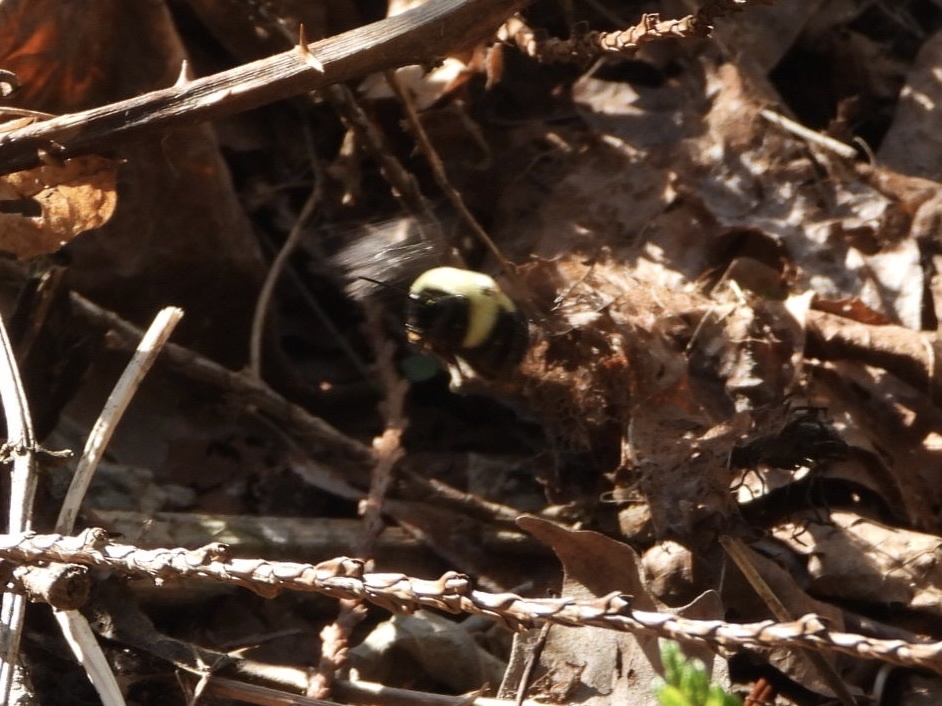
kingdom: Animalia
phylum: Arthropoda
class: Insecta
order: Hymenoptera
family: Apidae
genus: Bombus
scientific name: Bombus impatiens
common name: Common eastern bumble bee
